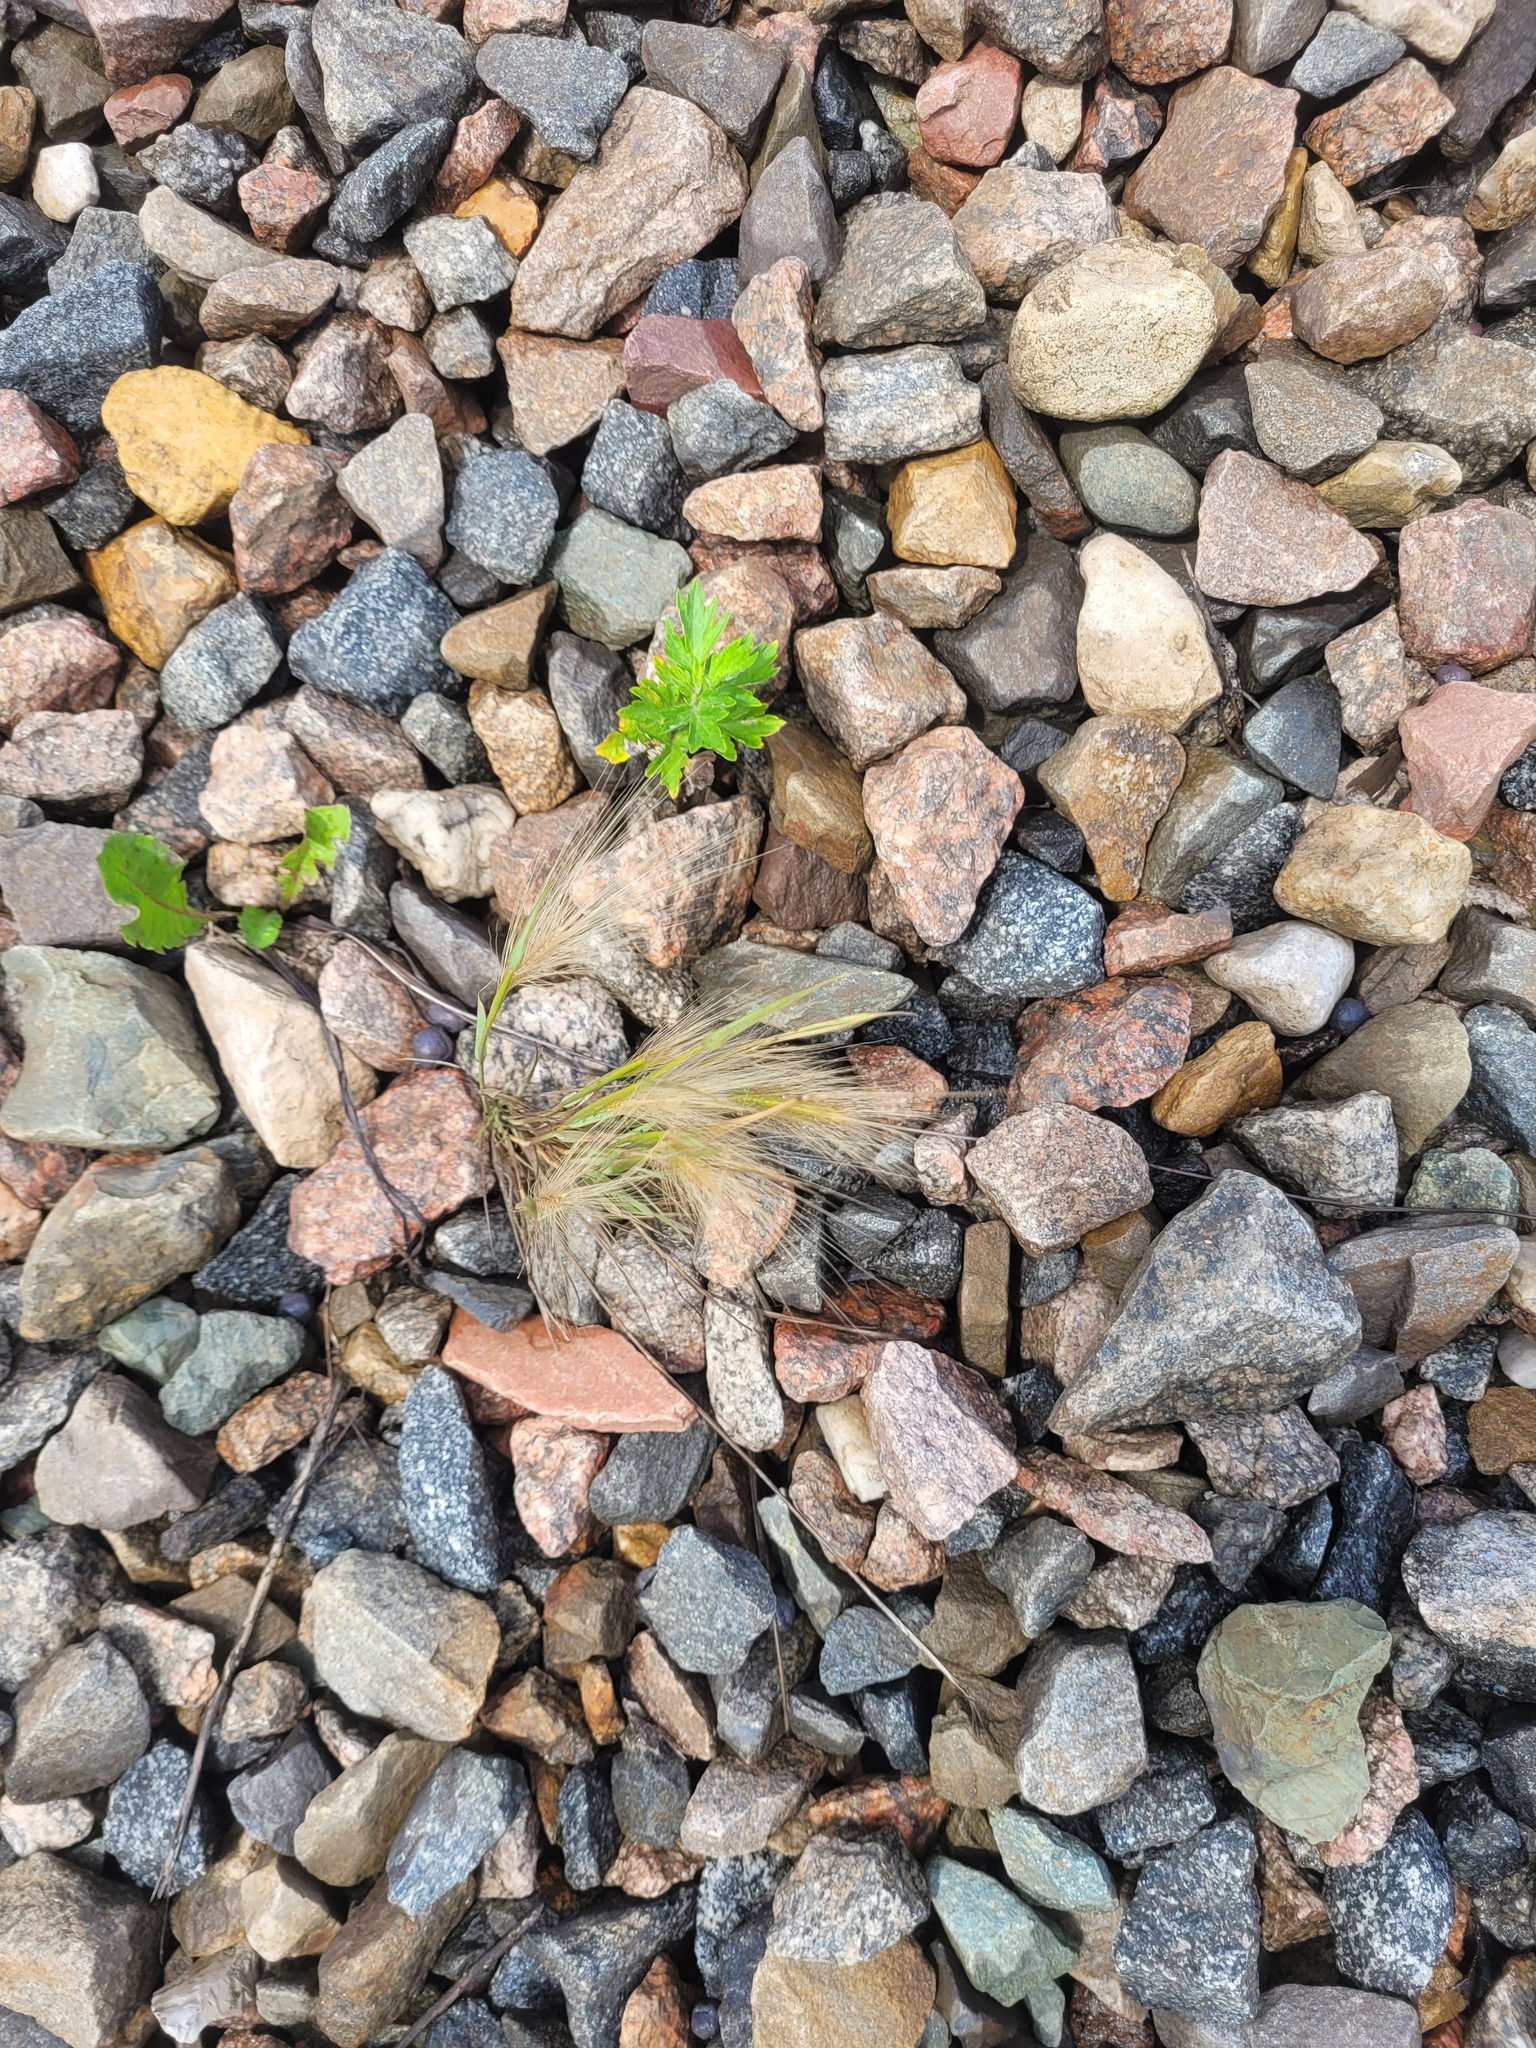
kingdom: Plantae
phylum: Tracheophyta
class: Liliopsida
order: Poales
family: Poaceae
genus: Hordeum
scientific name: Hordeum jubatum
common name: Foxtail barley
